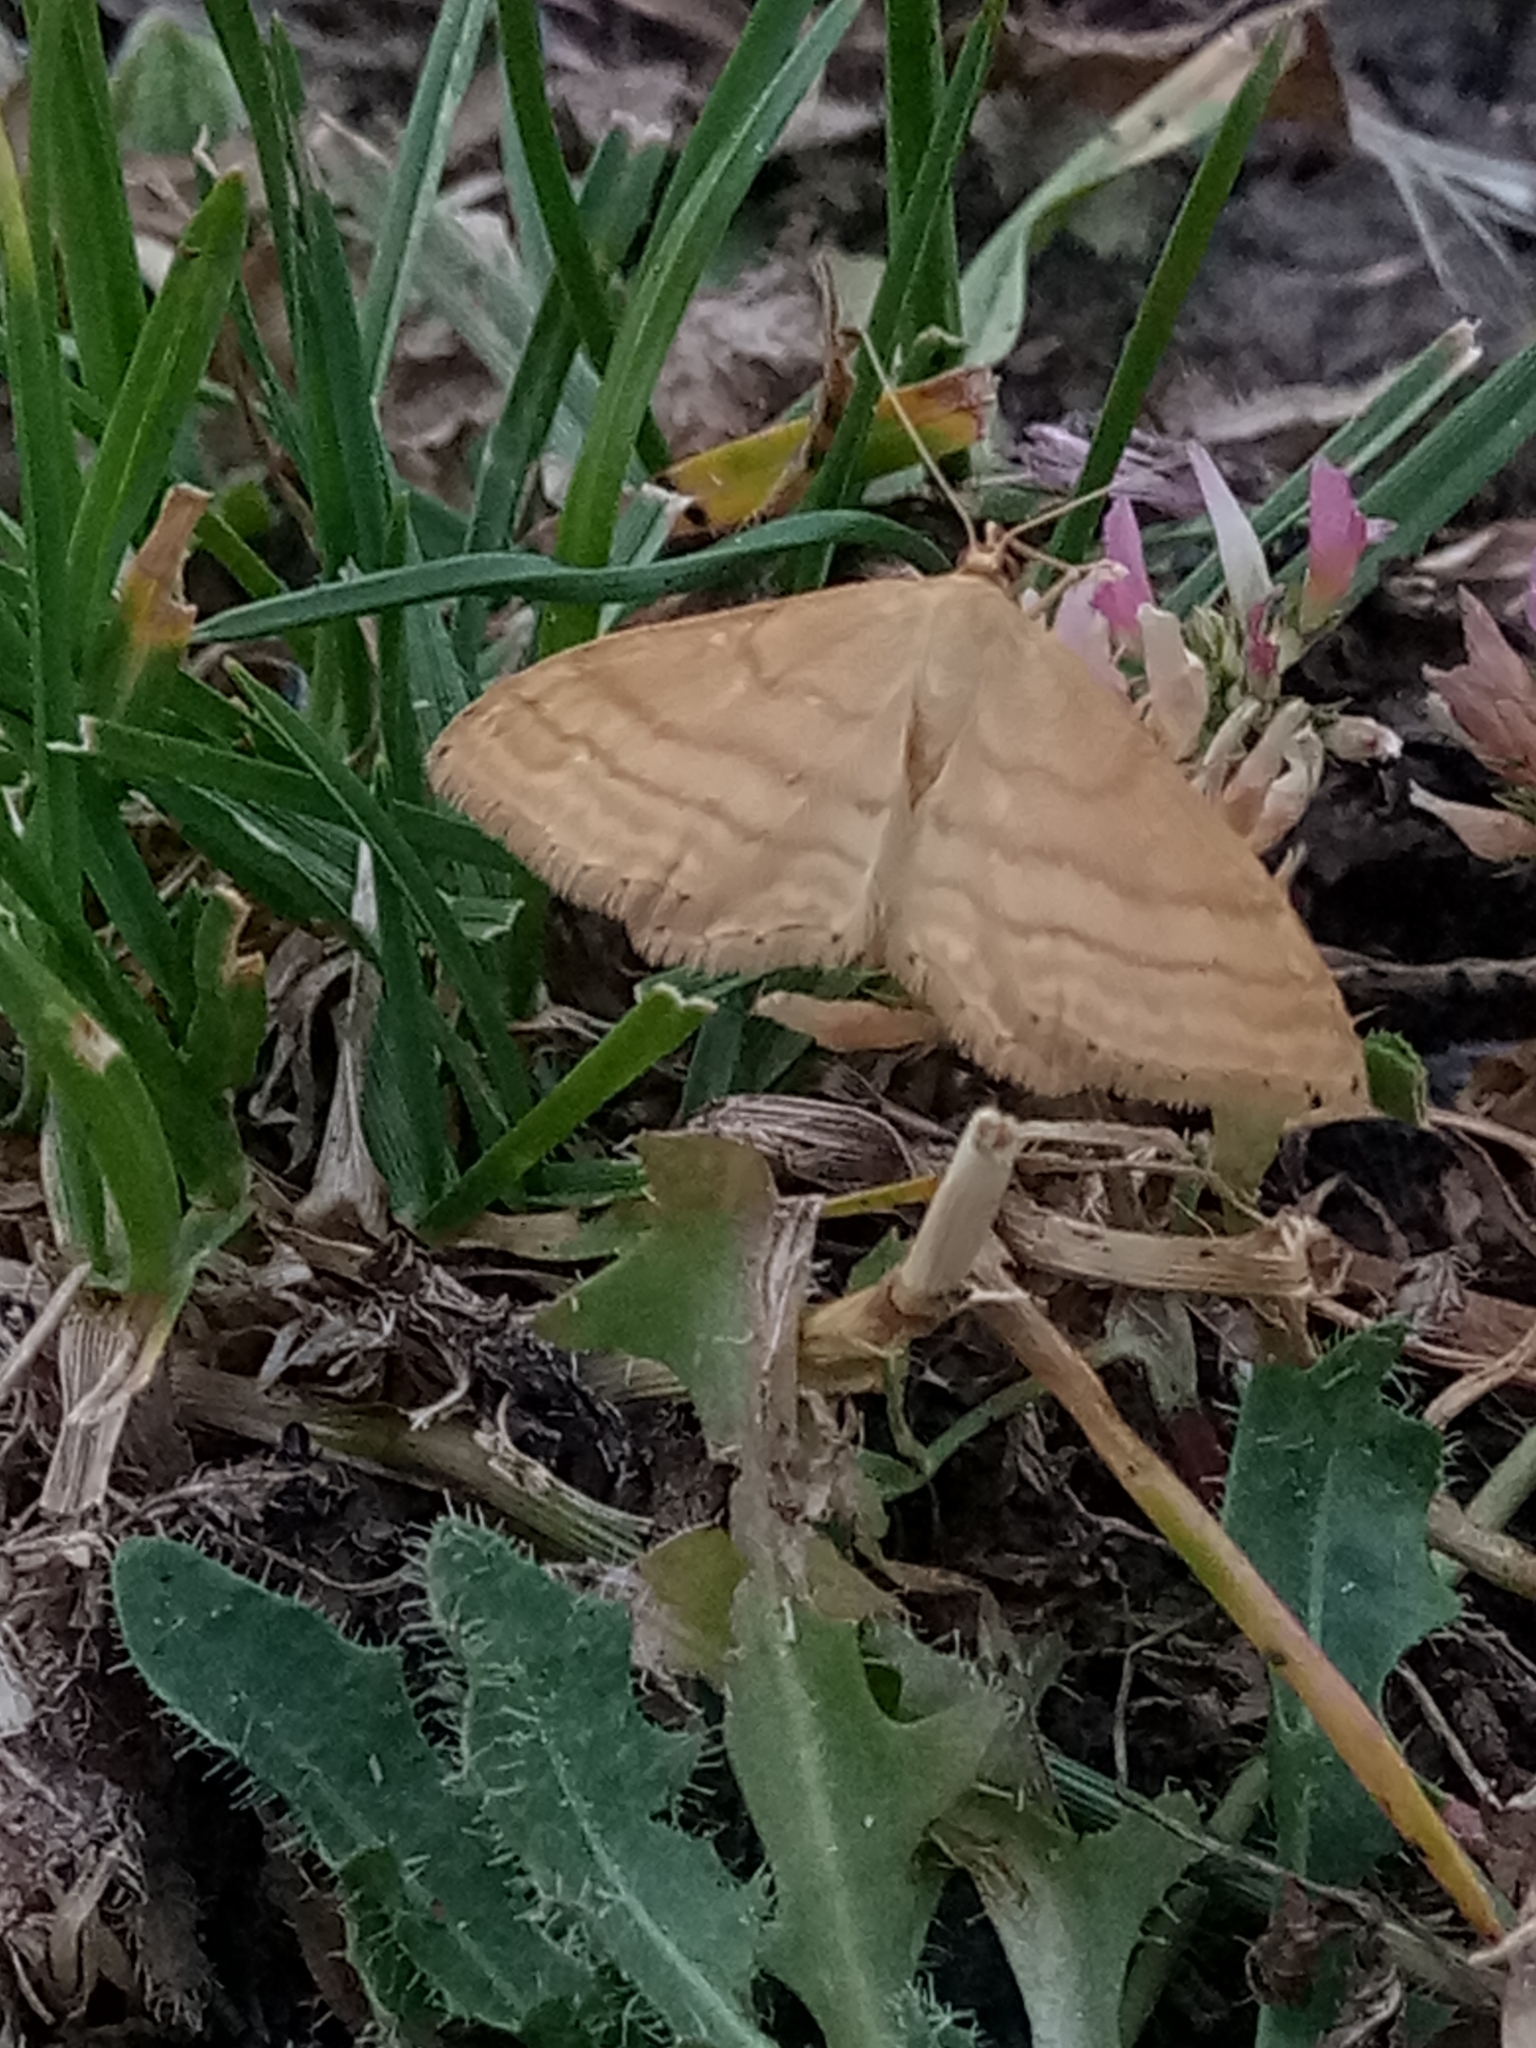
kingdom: Animalia
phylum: Arthropoda
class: Insecta
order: Lepidoptera
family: Geometridae
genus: Idaea
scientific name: Idaea ochrata
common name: Bright wave
